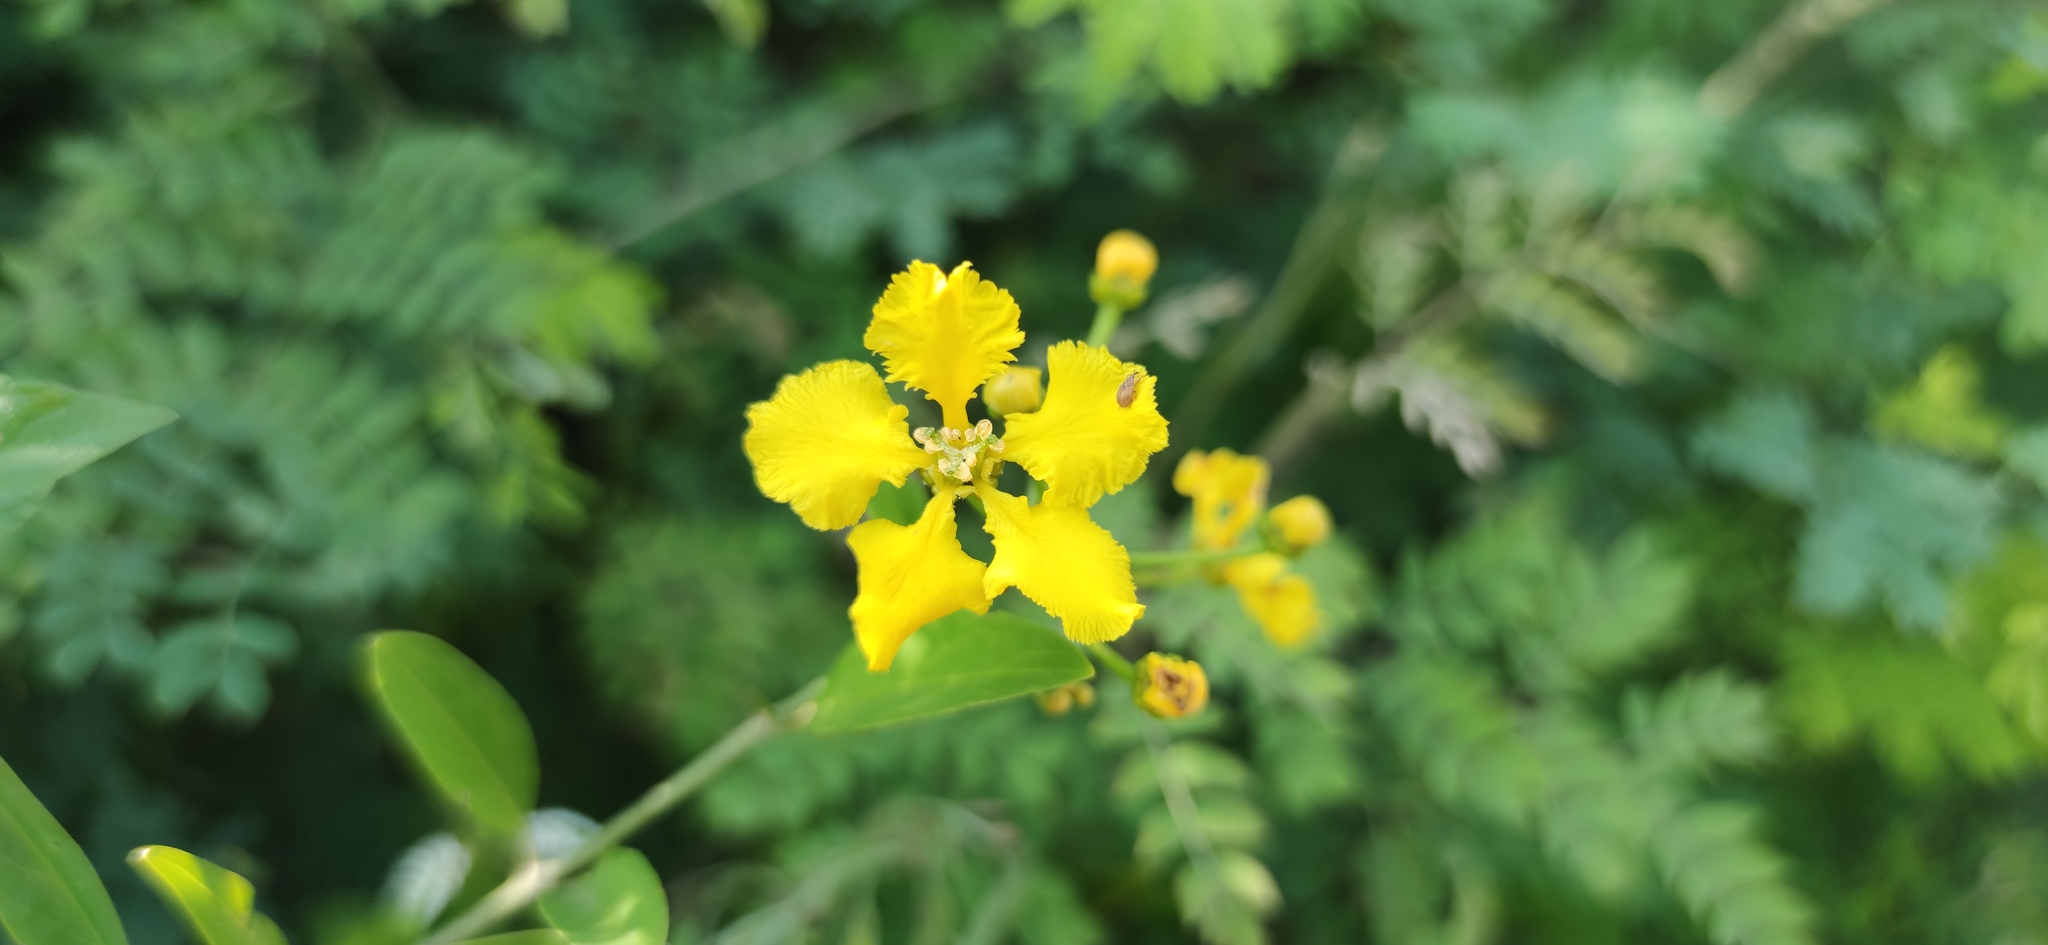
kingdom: Plantae
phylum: Tracheophyta
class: Magnoliopsida
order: Malpighiales
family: Malpighiaceae
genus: Callaeum
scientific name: Callaeum macropterum
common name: Mexican butterfly-vine
